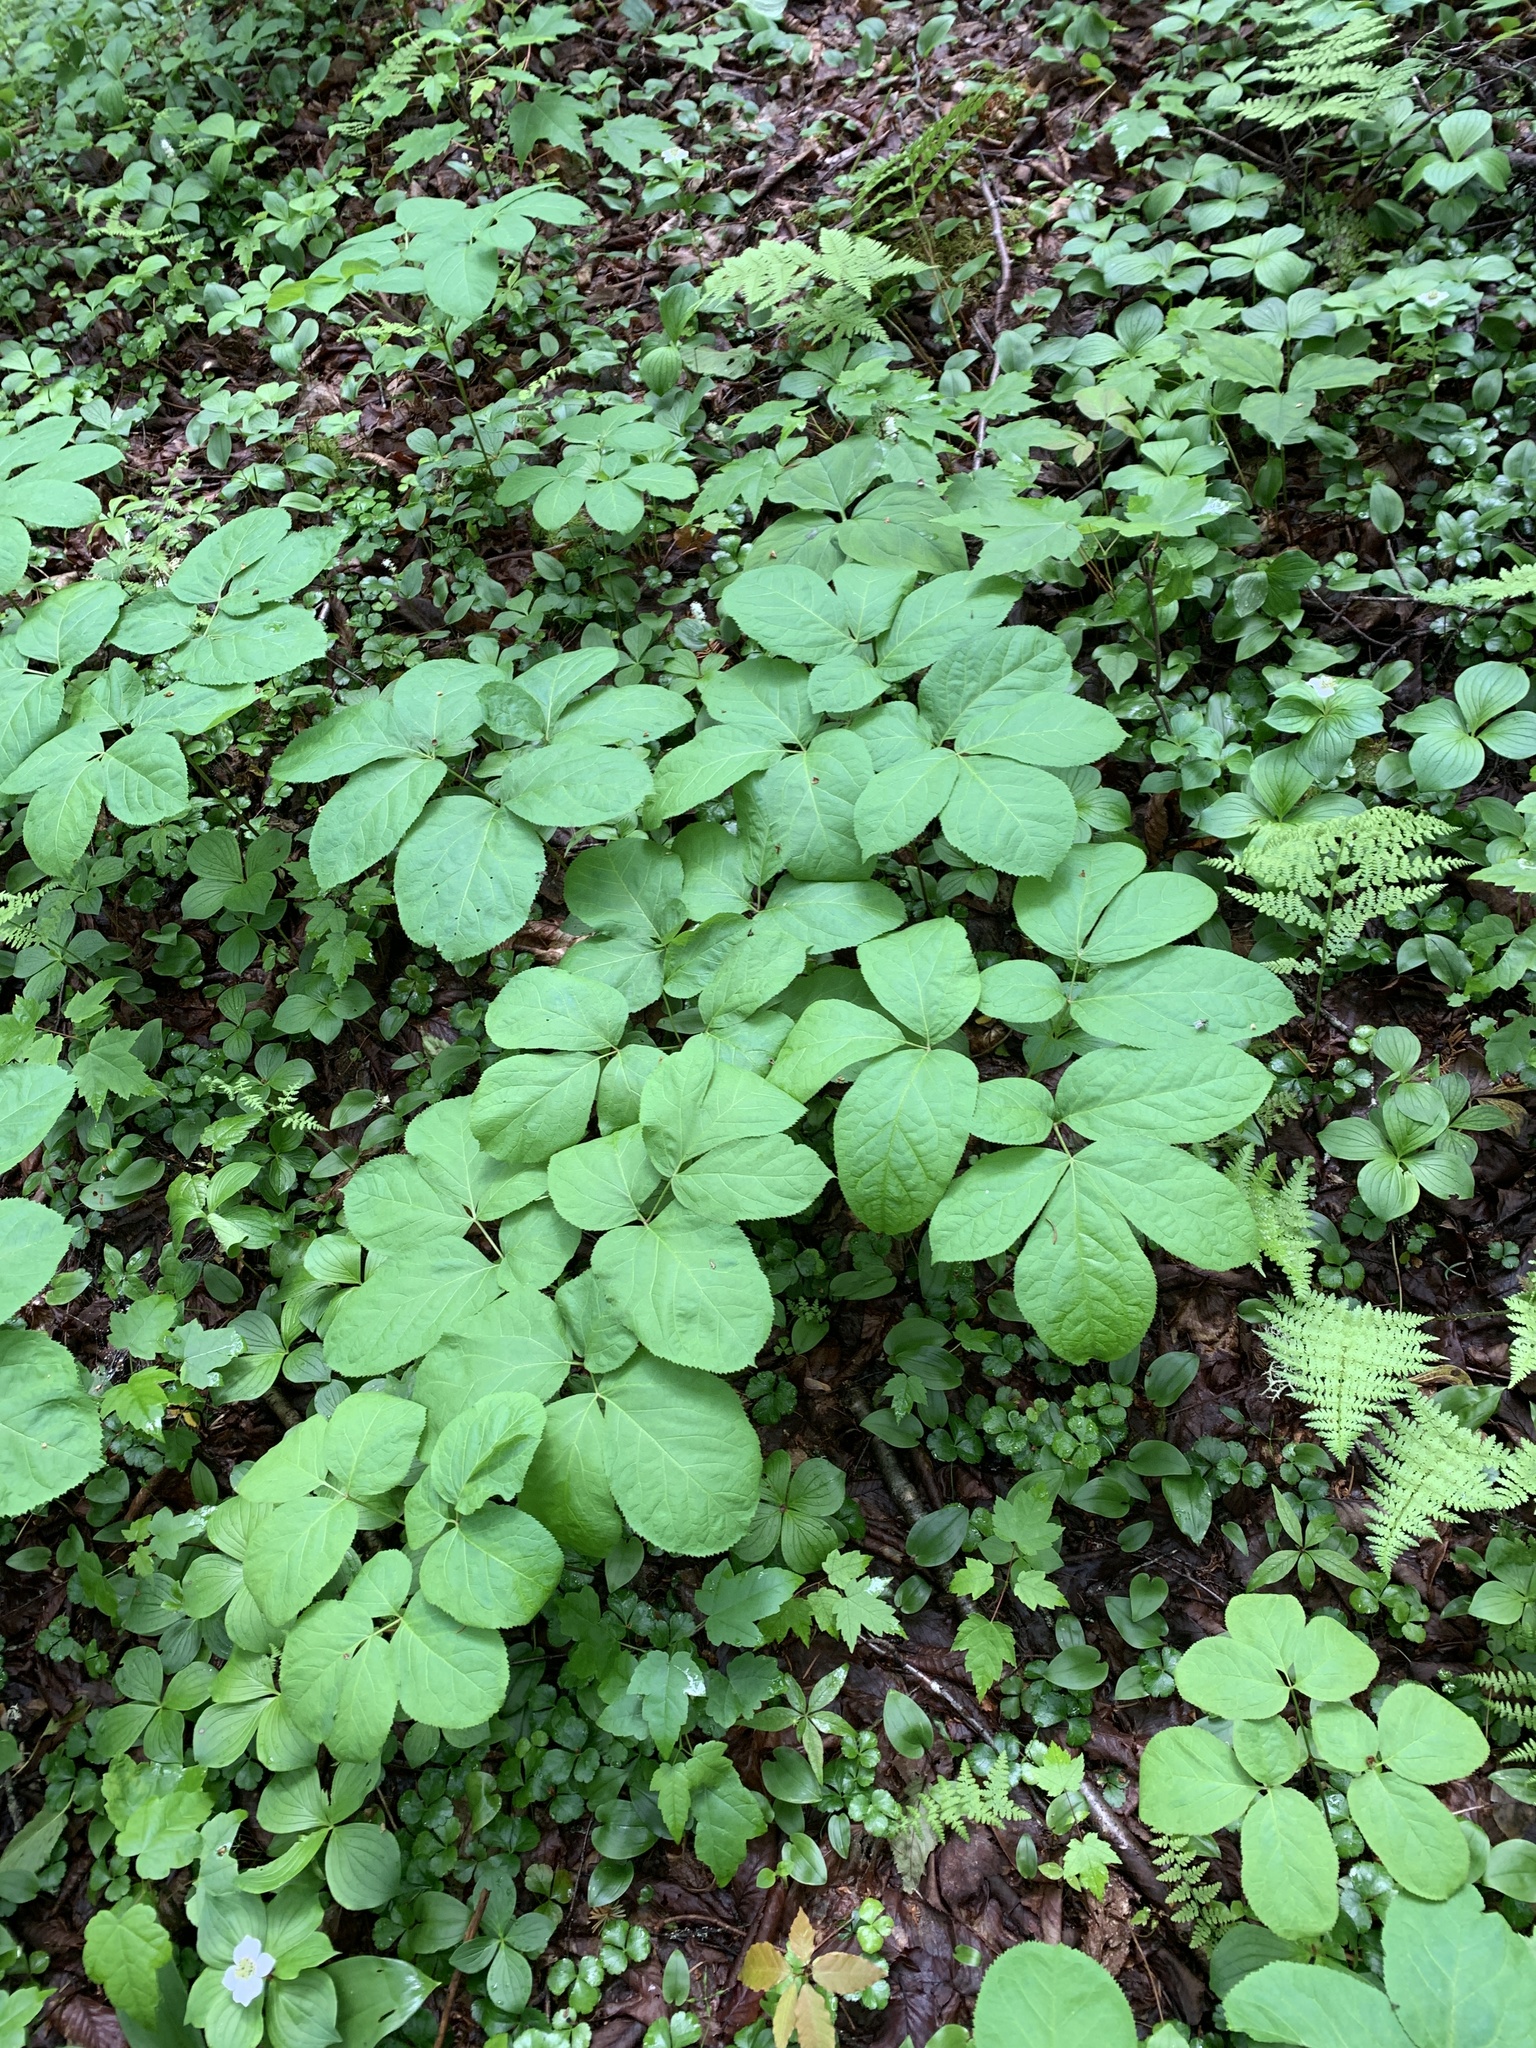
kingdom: Plantae
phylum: Tracheophyta
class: Magnoliopsida
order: Apiales
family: Araliaceae
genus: Aralia
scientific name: Aralia nudicaulis
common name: Wild sarsaparilla
